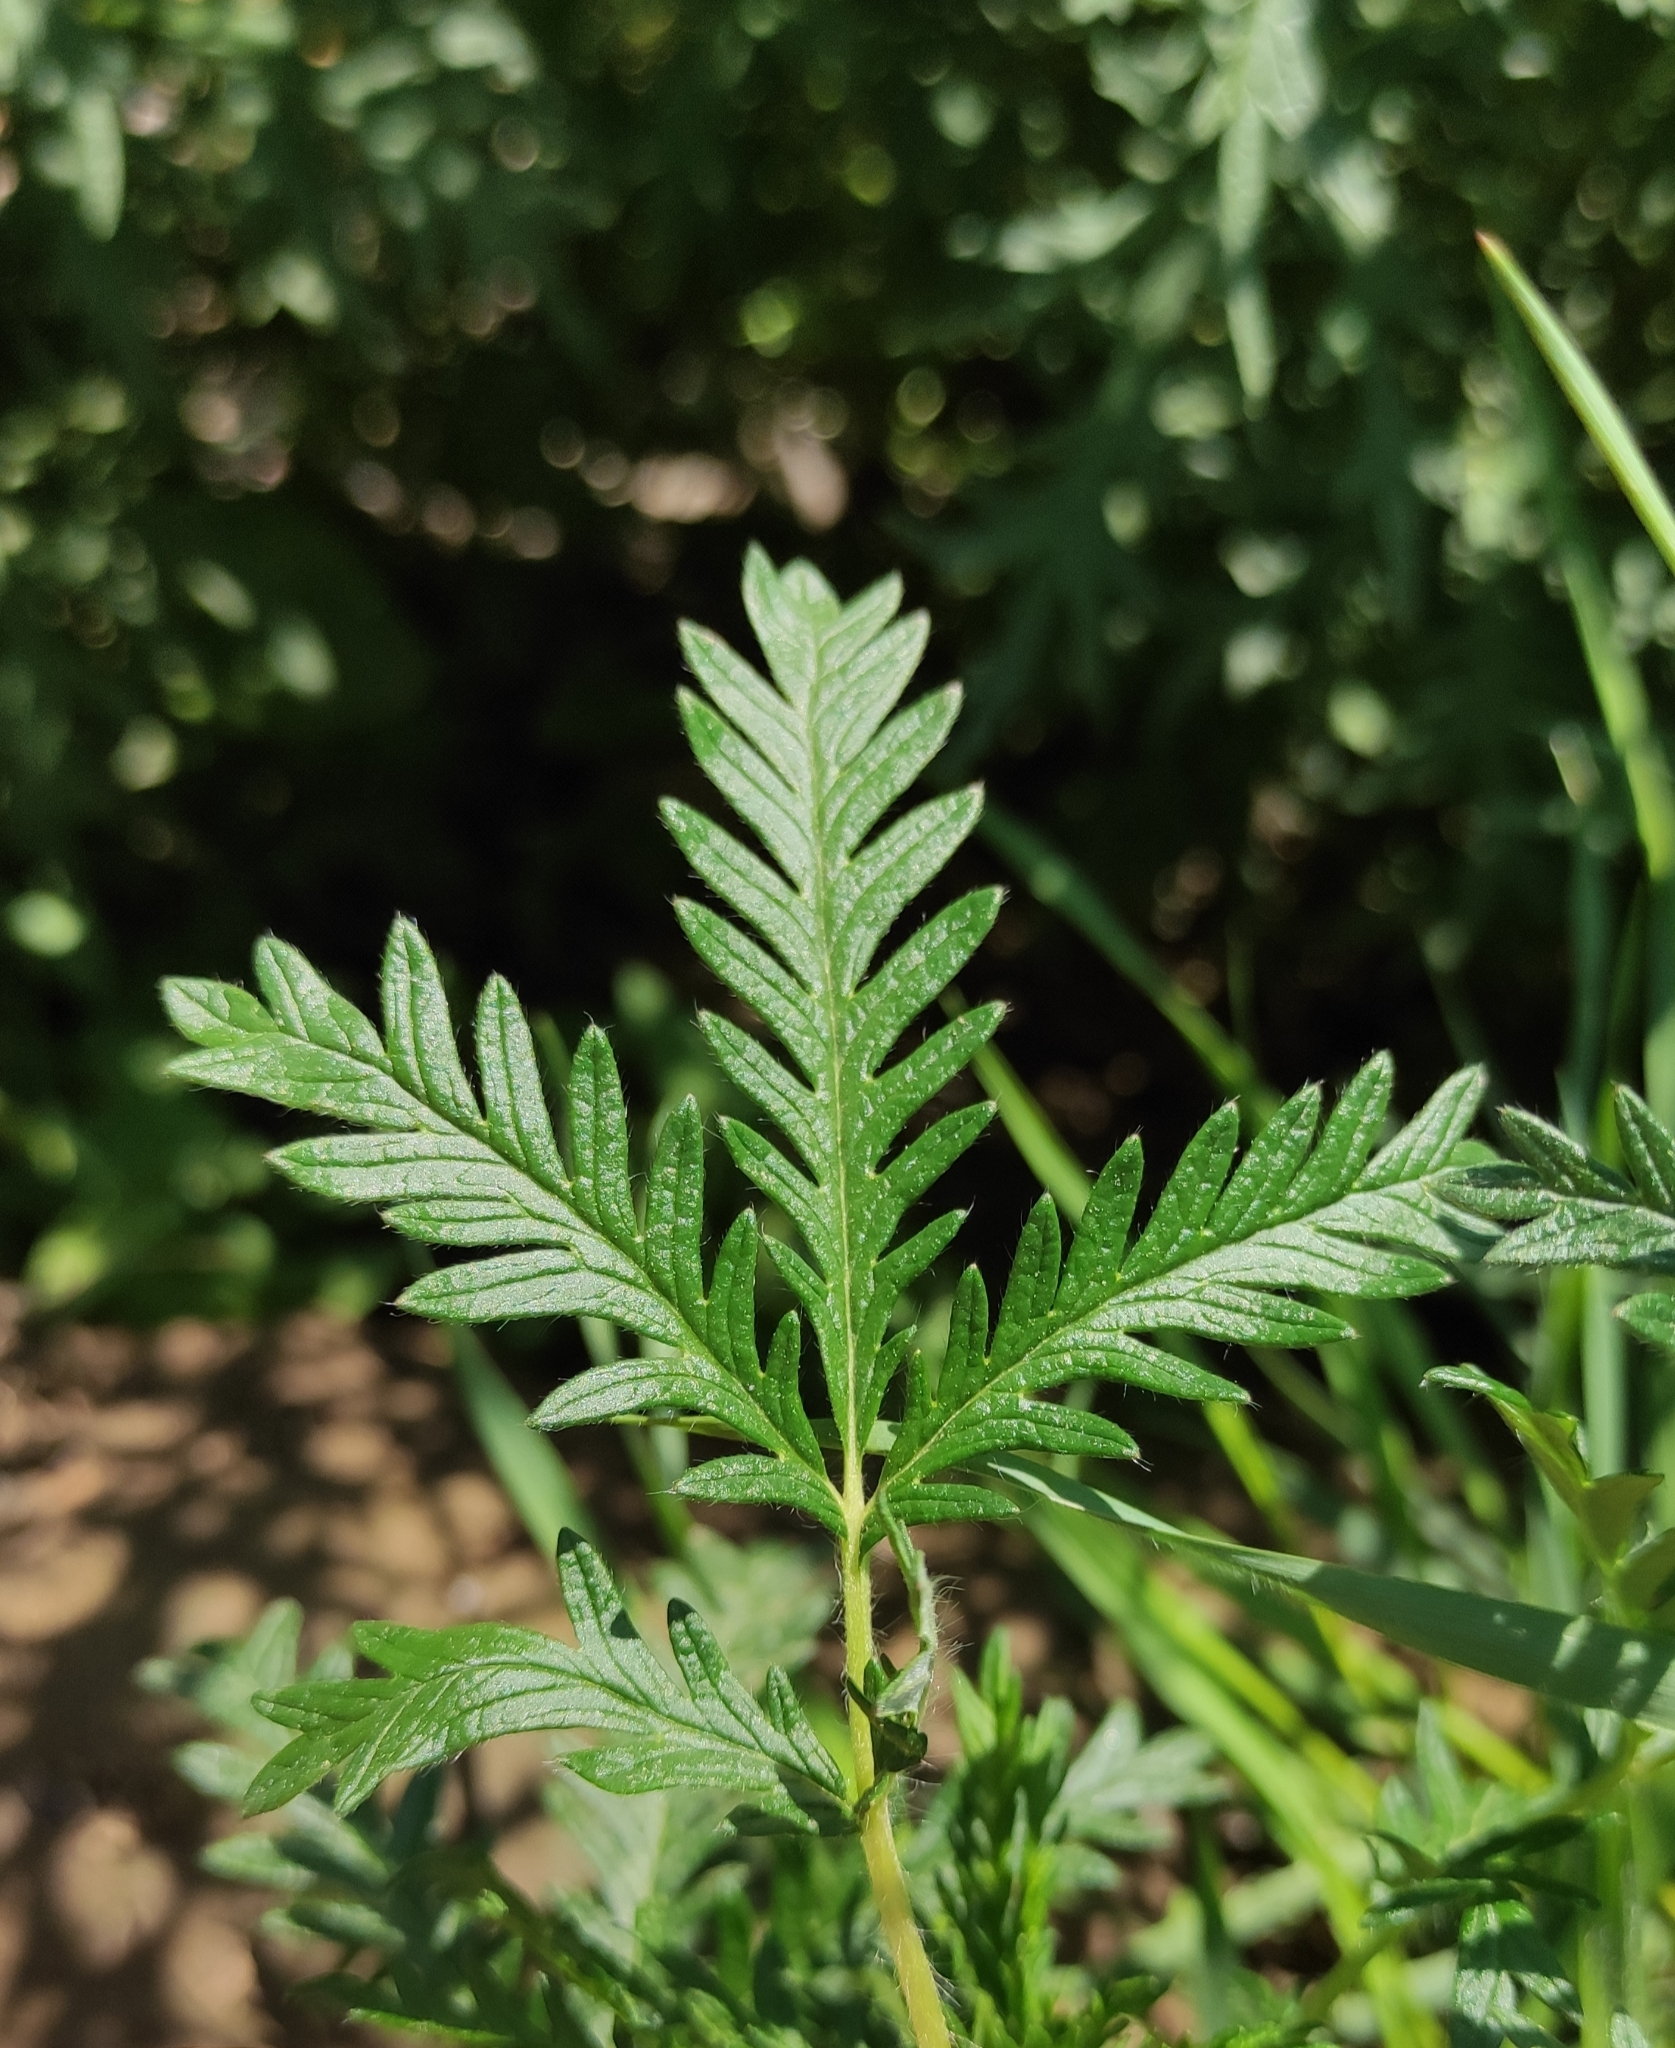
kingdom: Plantae
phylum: Tracheophyta
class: Magnoliopsida
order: Rosales
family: Rosaceae
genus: Potentilla
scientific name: Potentilla tergemina
